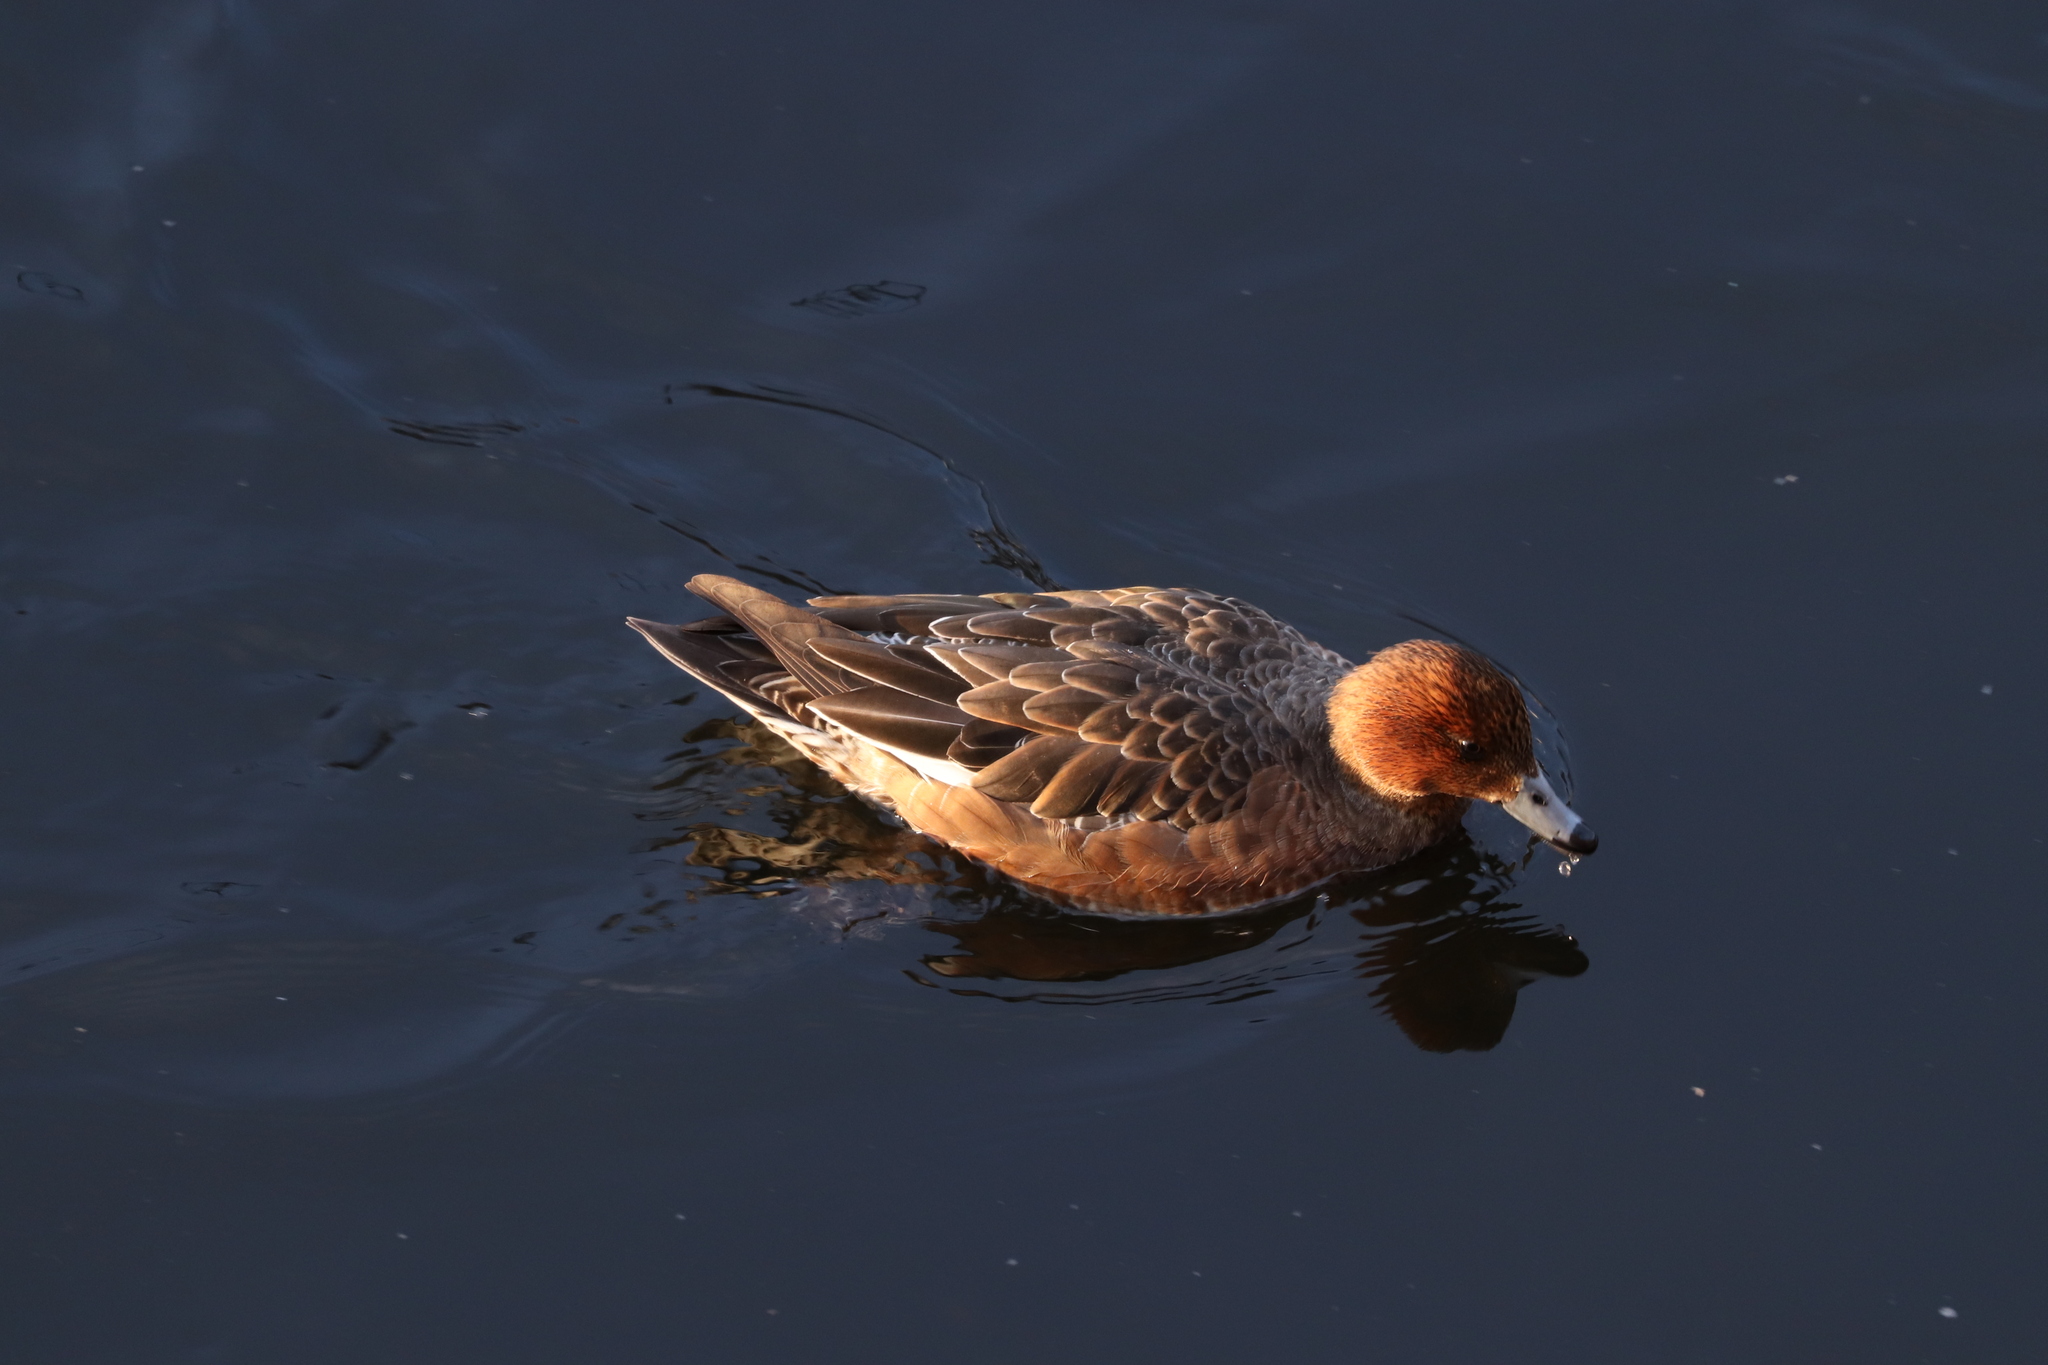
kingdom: Animalia
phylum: Chordata
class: Aves
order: Anseriformes
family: Anatidae
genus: Mareca
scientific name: Mareca penelope
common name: Eurasian wigeon
